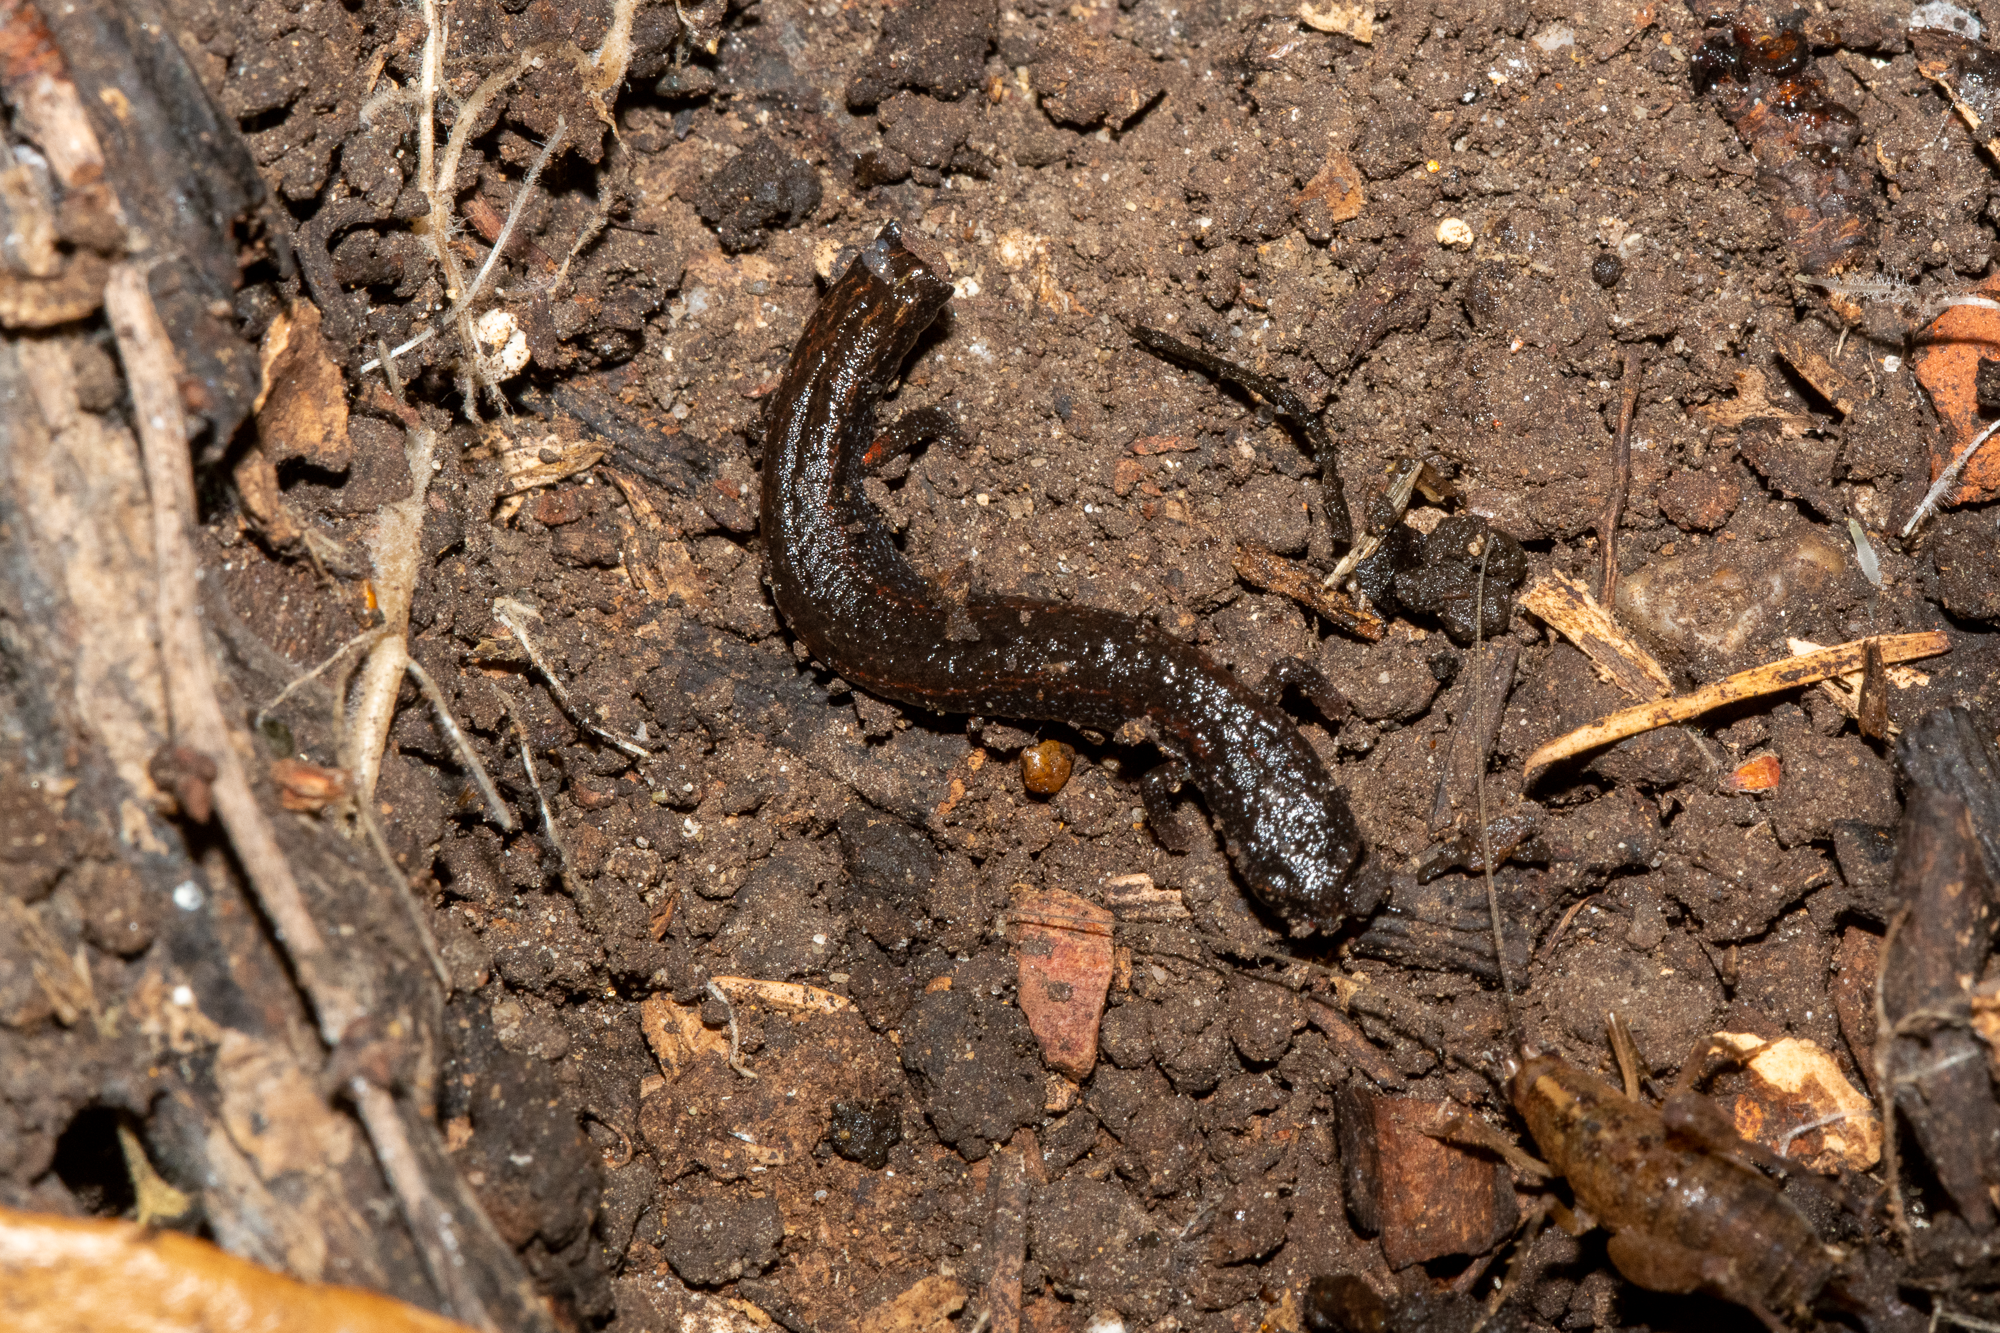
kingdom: Animalia
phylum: Chordata
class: Amphibia
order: Caudata
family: Plethodontidae
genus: Batrachoseps
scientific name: Batrachoseps attenuatus
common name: California slender salamander
